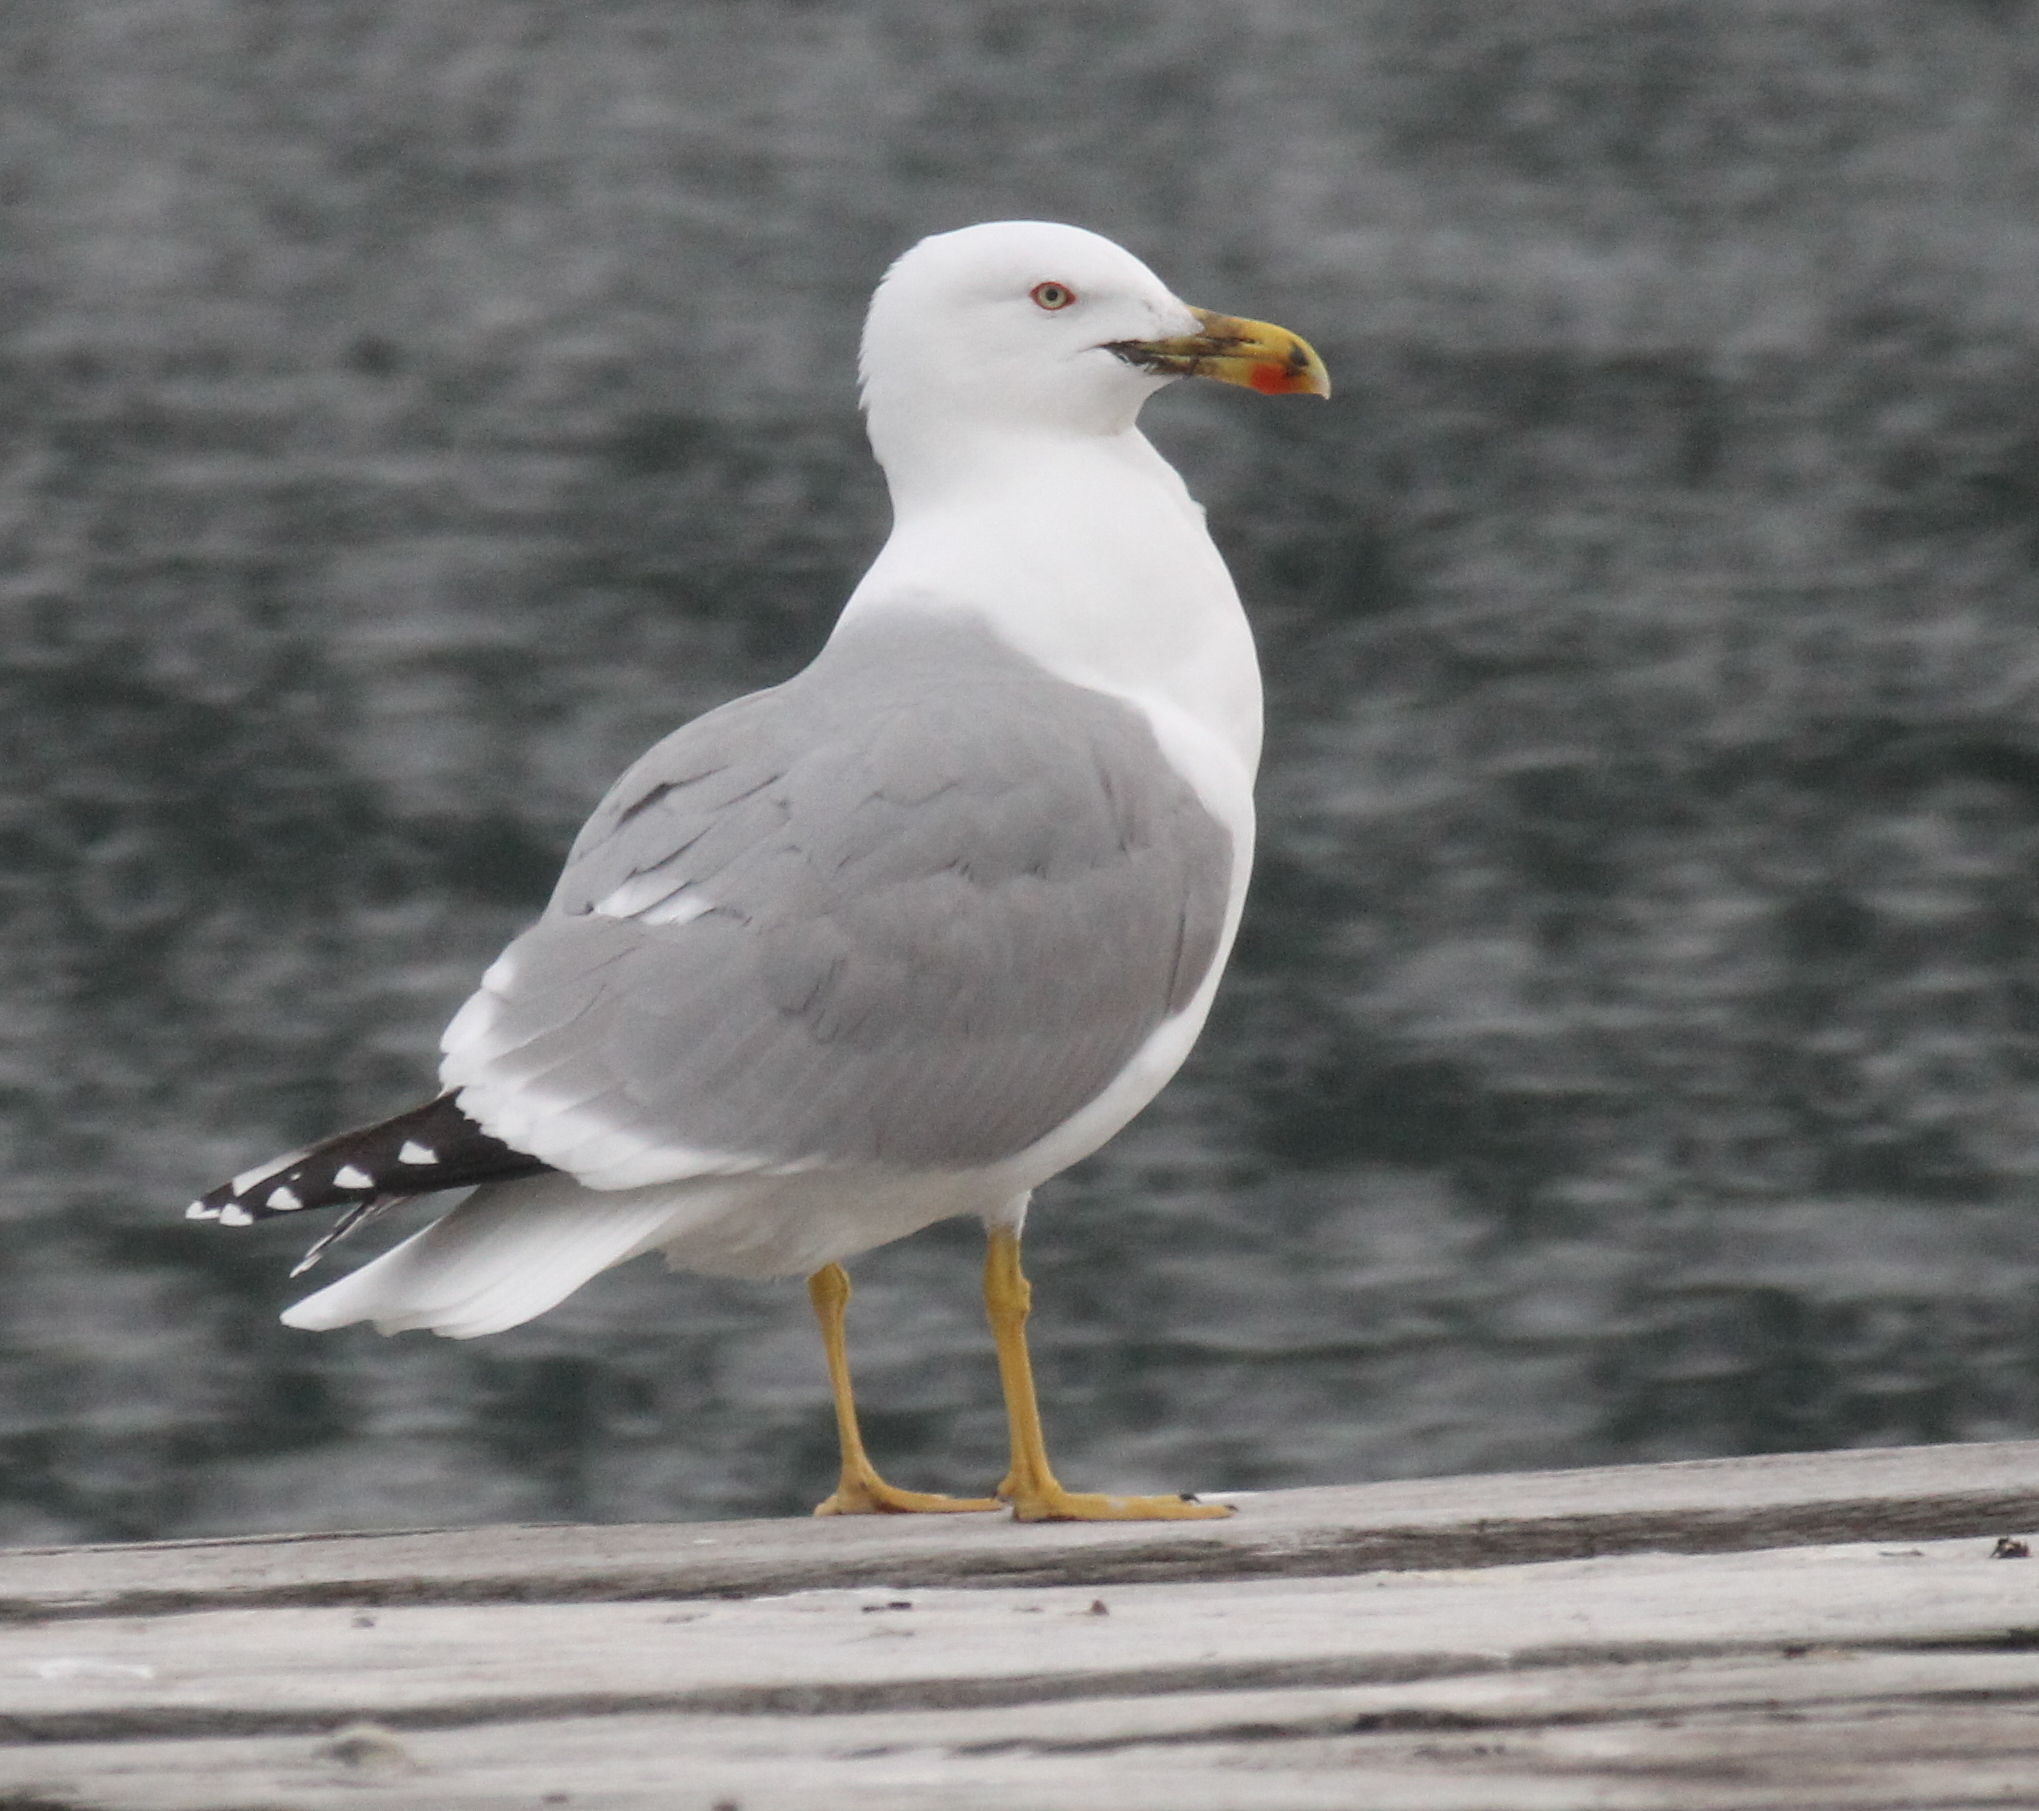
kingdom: Animalia
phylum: Chordata
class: Aves
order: Charadriiformes
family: Laridae
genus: Larus
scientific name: Larus michahellis
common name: Yellow-legged gull
